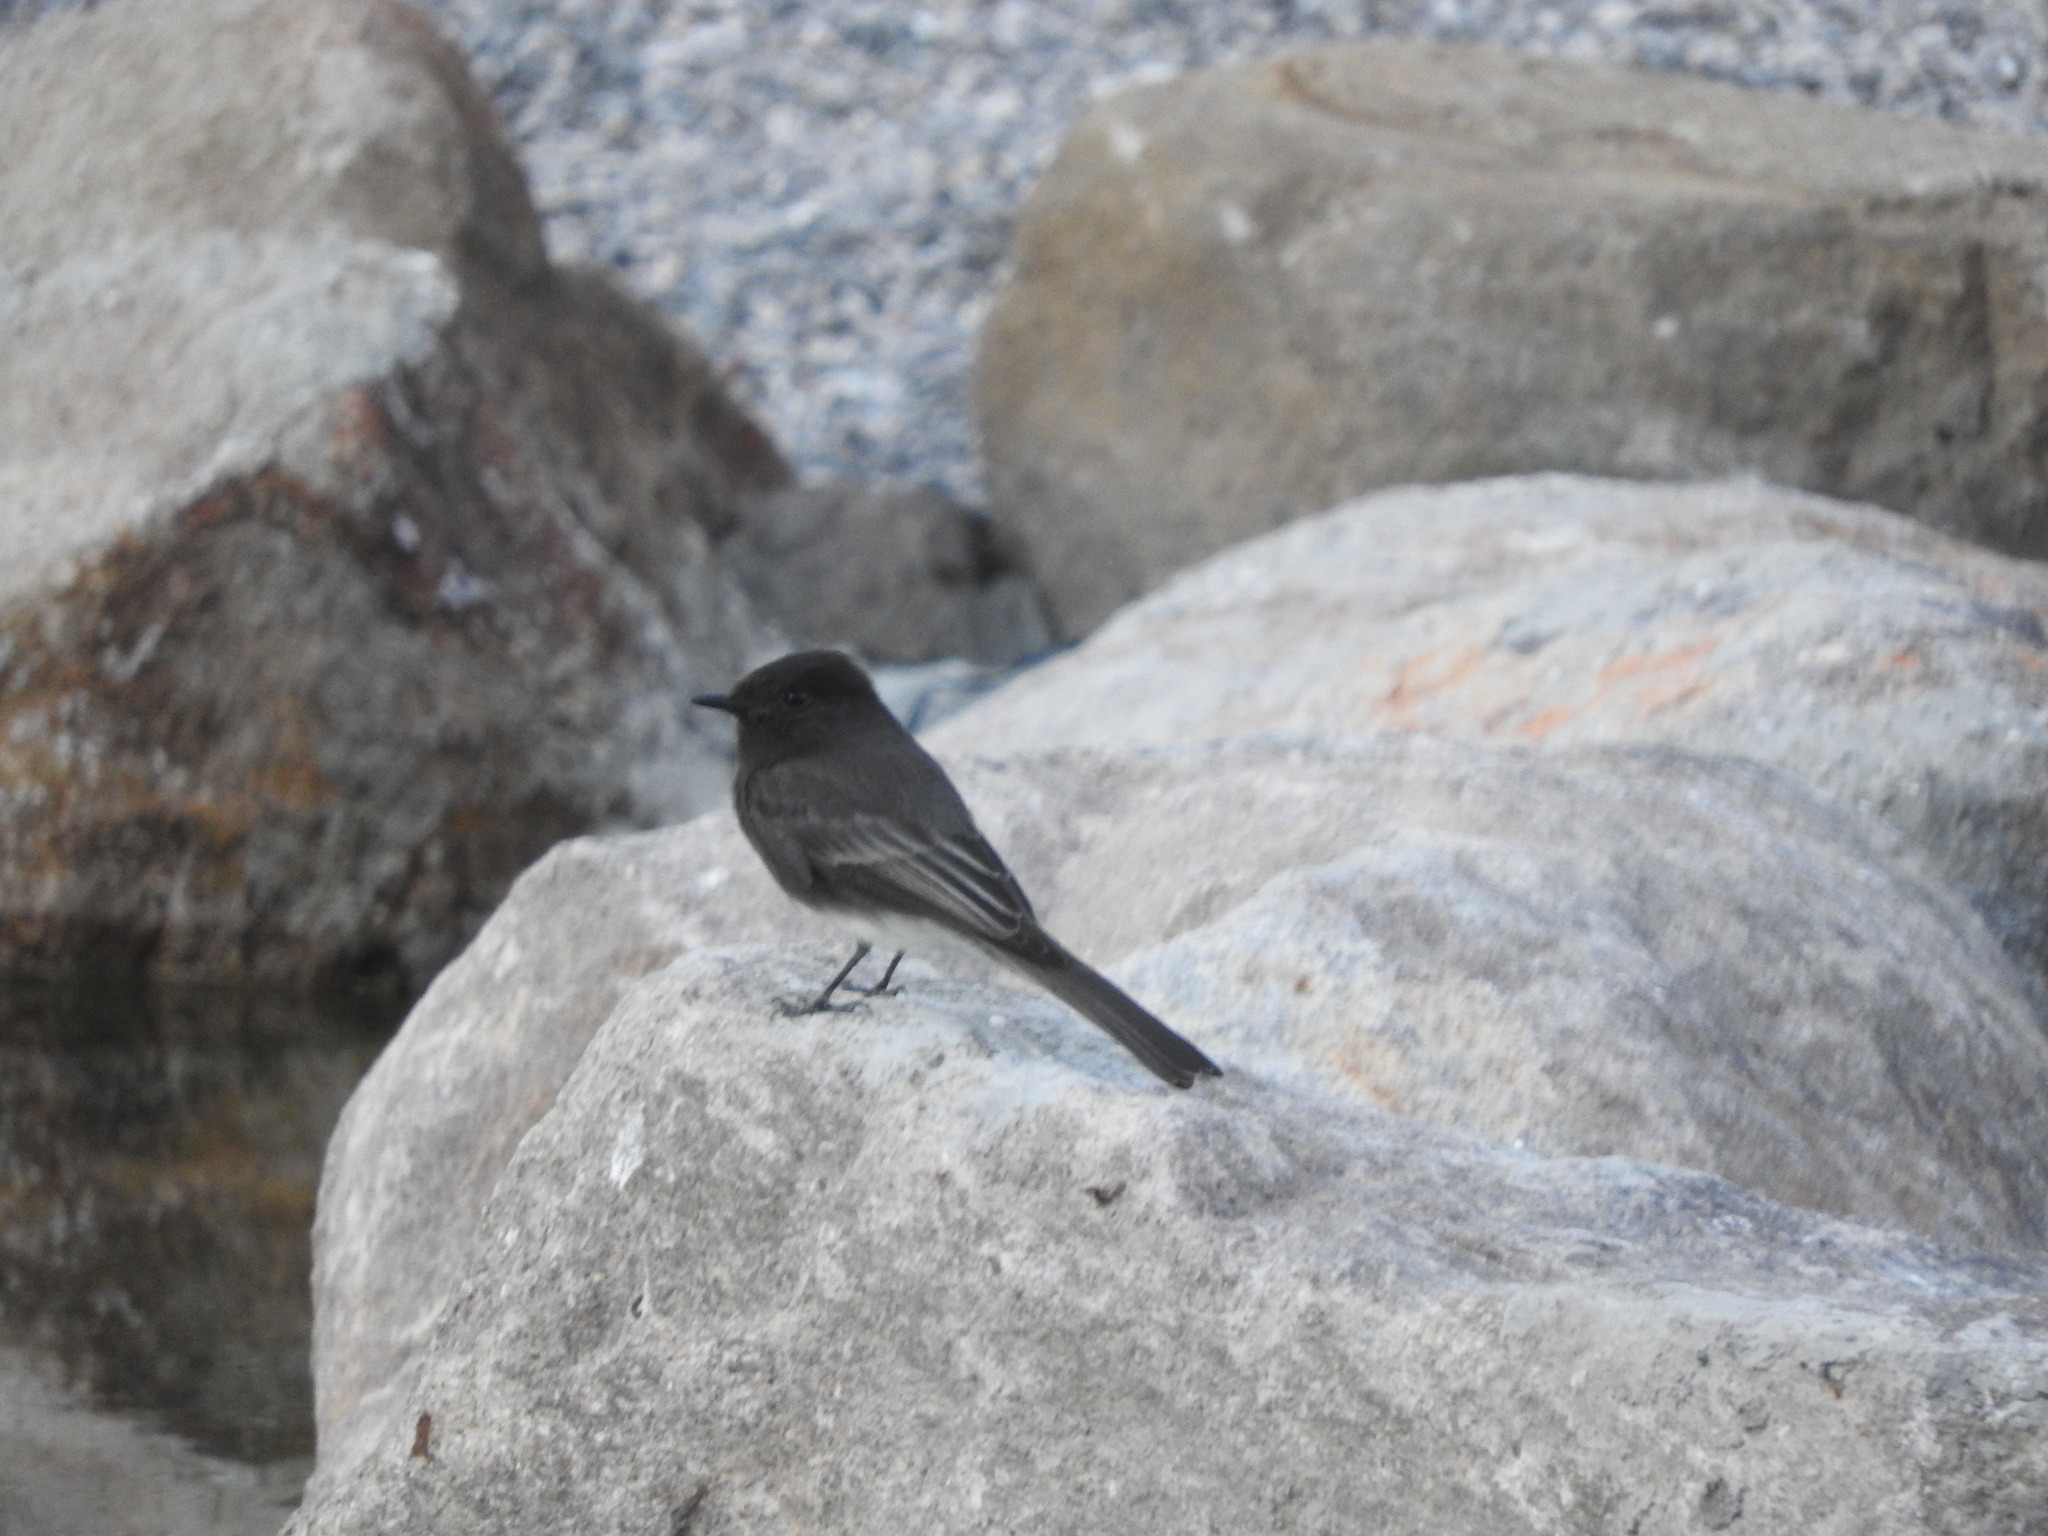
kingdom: Animalia
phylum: Chordata
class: Aves
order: Passeriformes
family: Tyrannidae
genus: Sayornis
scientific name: Sayornis nigricans
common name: Black phoebe
